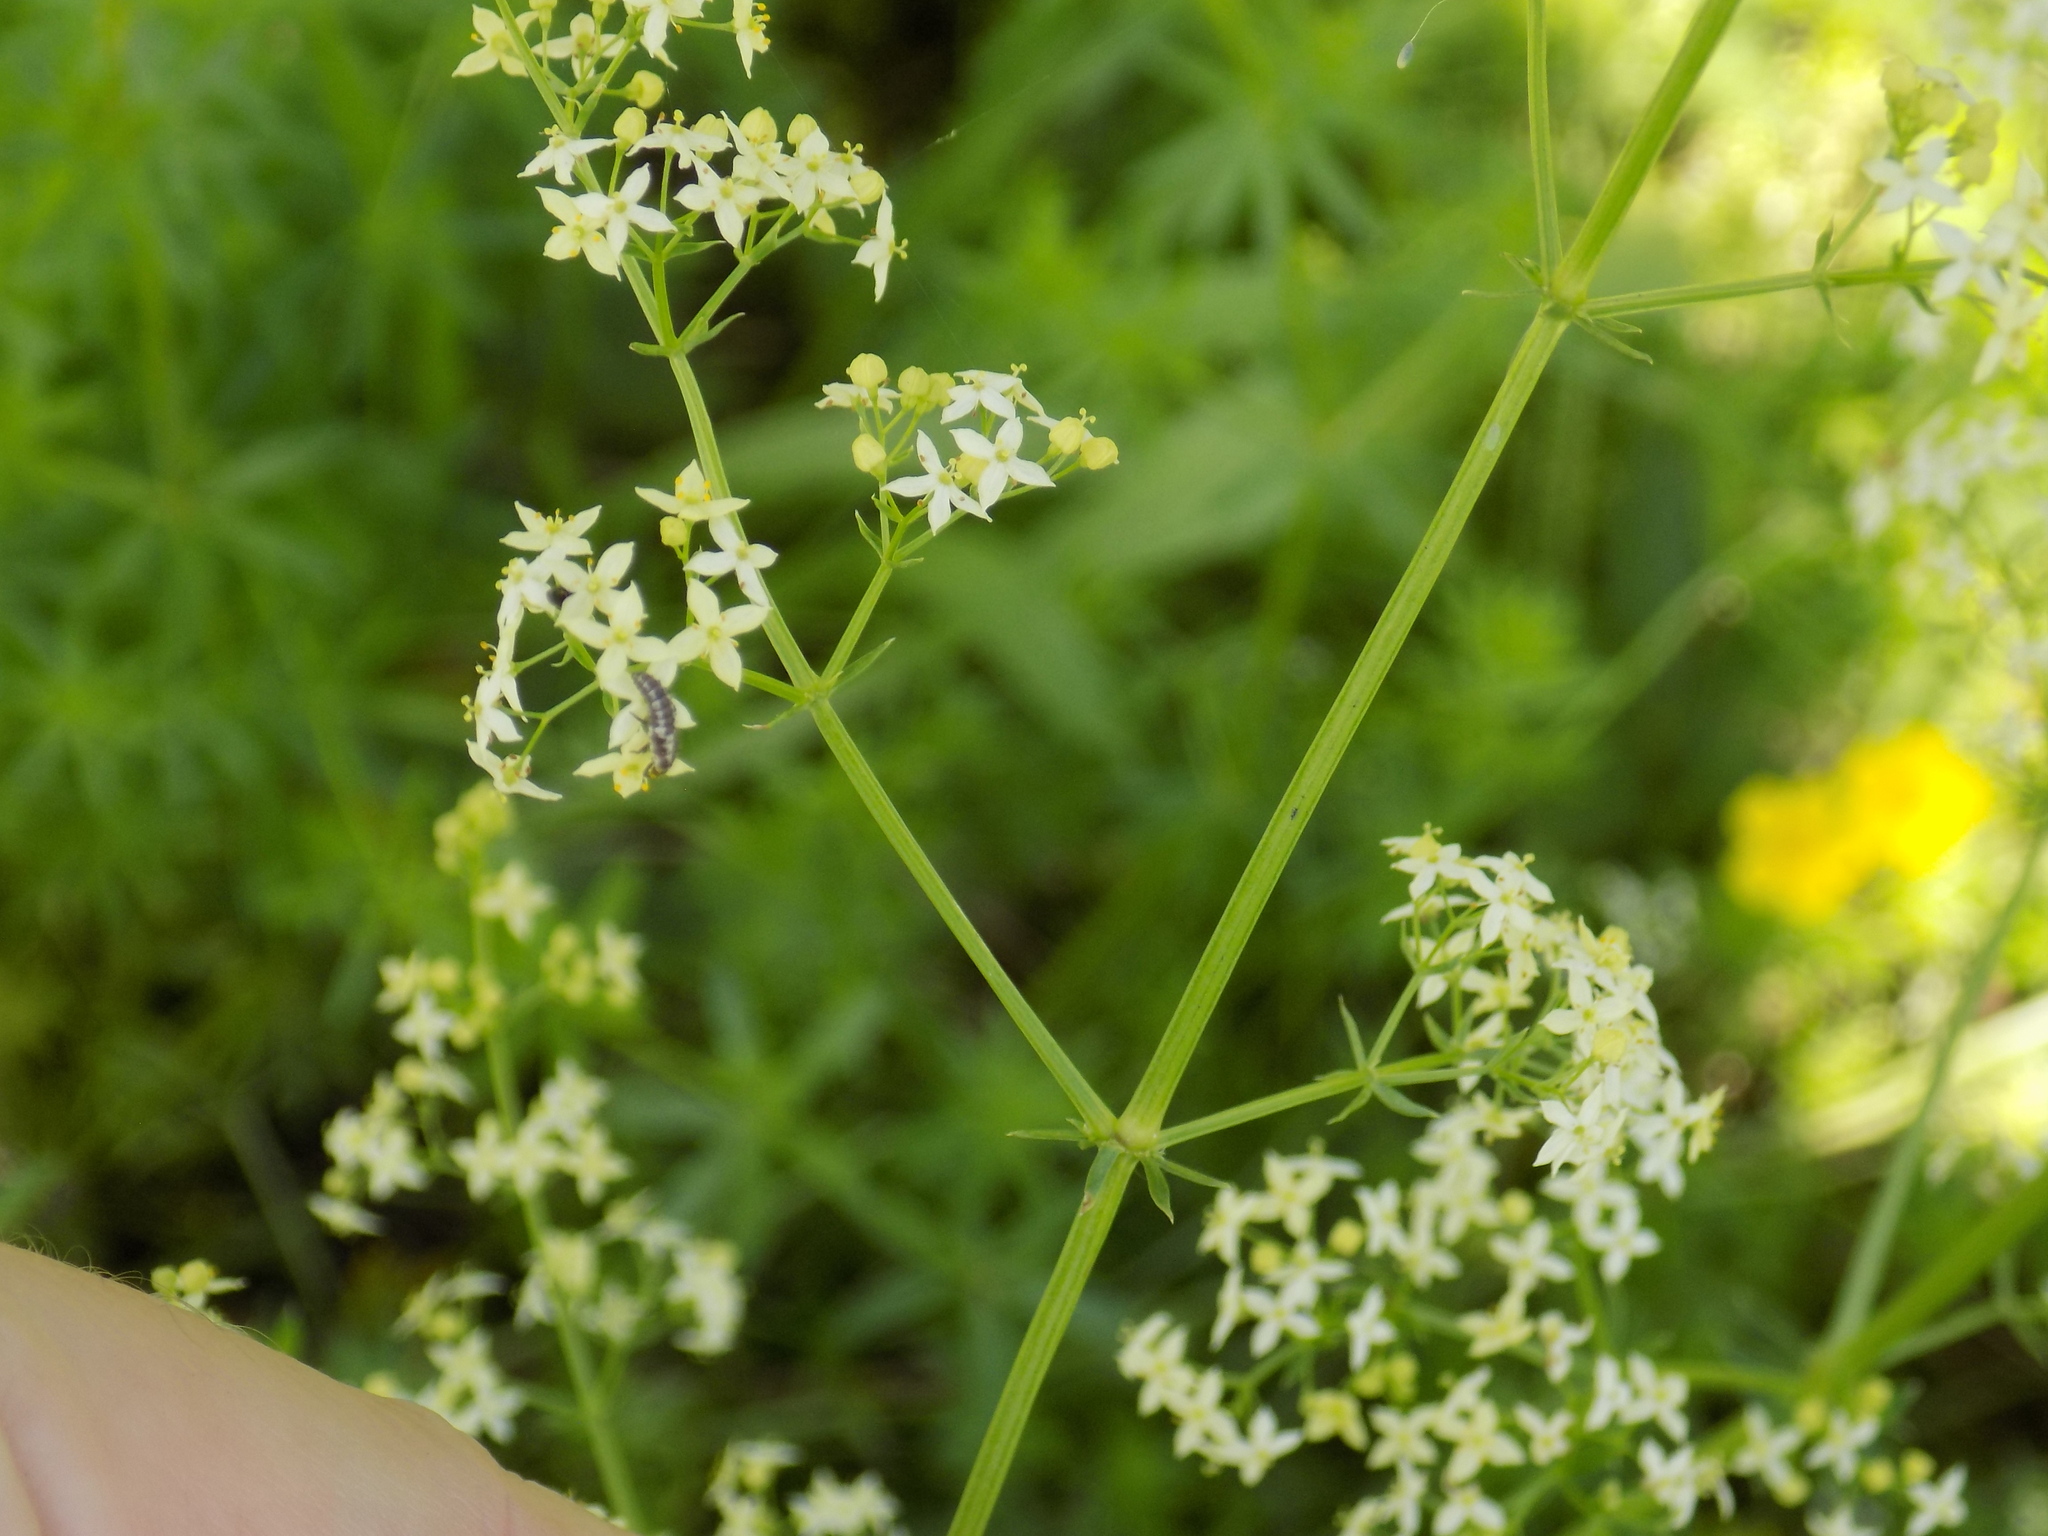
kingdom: Plantae
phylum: Tracheophyta
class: Magnoliopsida
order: Gentianales
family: Rubiaceae
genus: Galium
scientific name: Galium mollugo
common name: Hedge bedstraw
